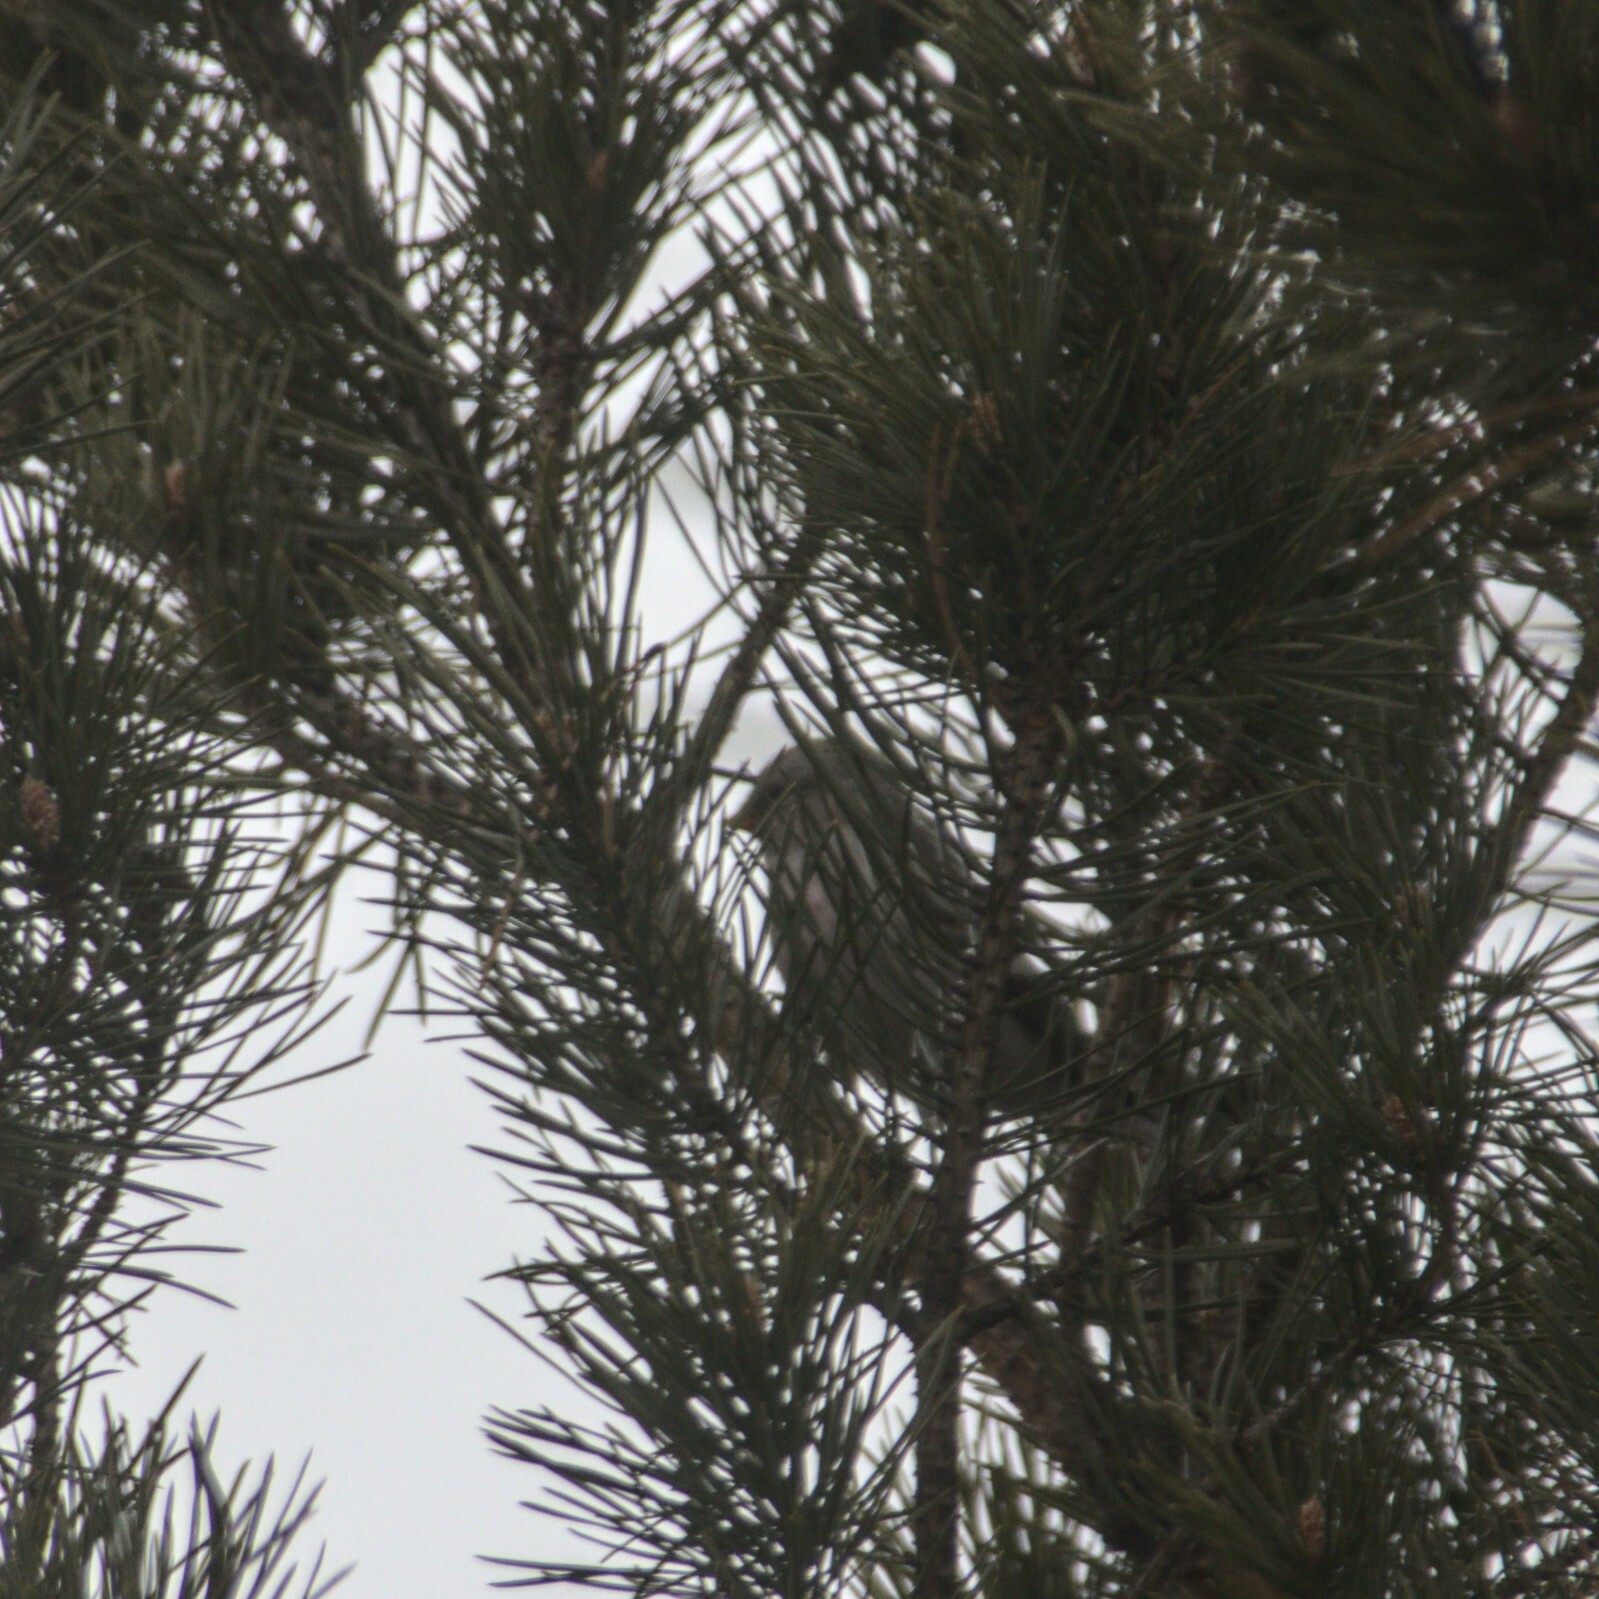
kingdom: Animalia
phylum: Chordata
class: Aves
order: Passeriformes
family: Fringillidae
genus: Acanthis
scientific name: Acanthis flammea
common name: Common redpoll
